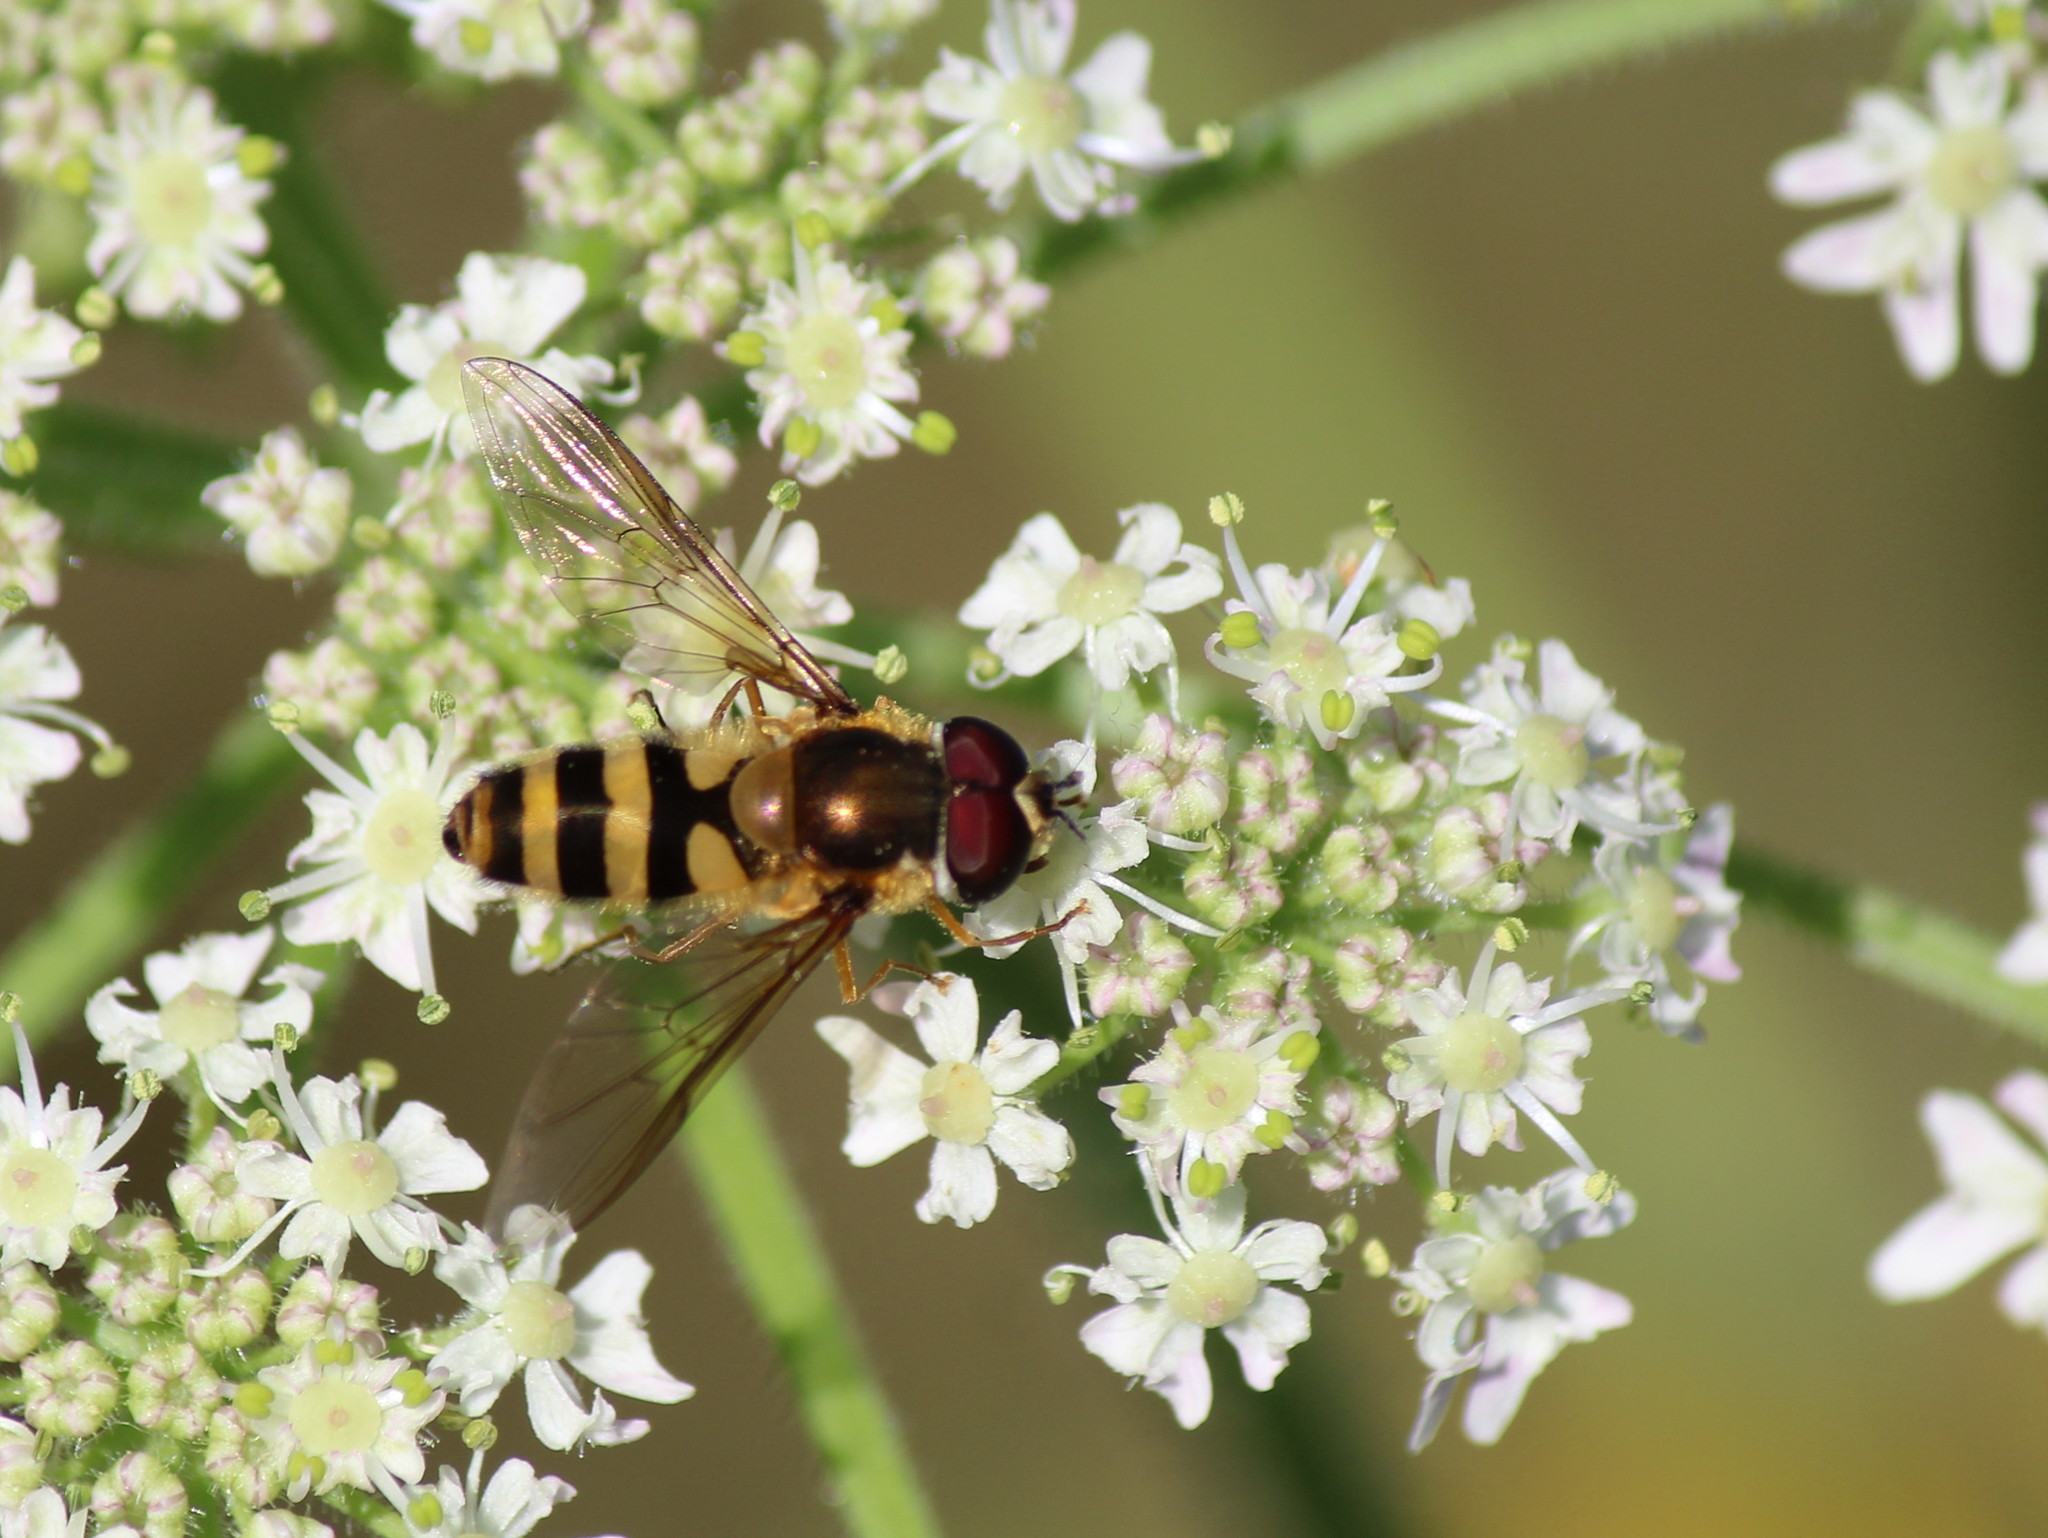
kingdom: Animalia
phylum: Arthropoda
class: Insecta
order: Diptera
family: Syrphidae
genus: Epistrophe
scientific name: Epistrophe grossulariae
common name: Black-horned smoothtail
